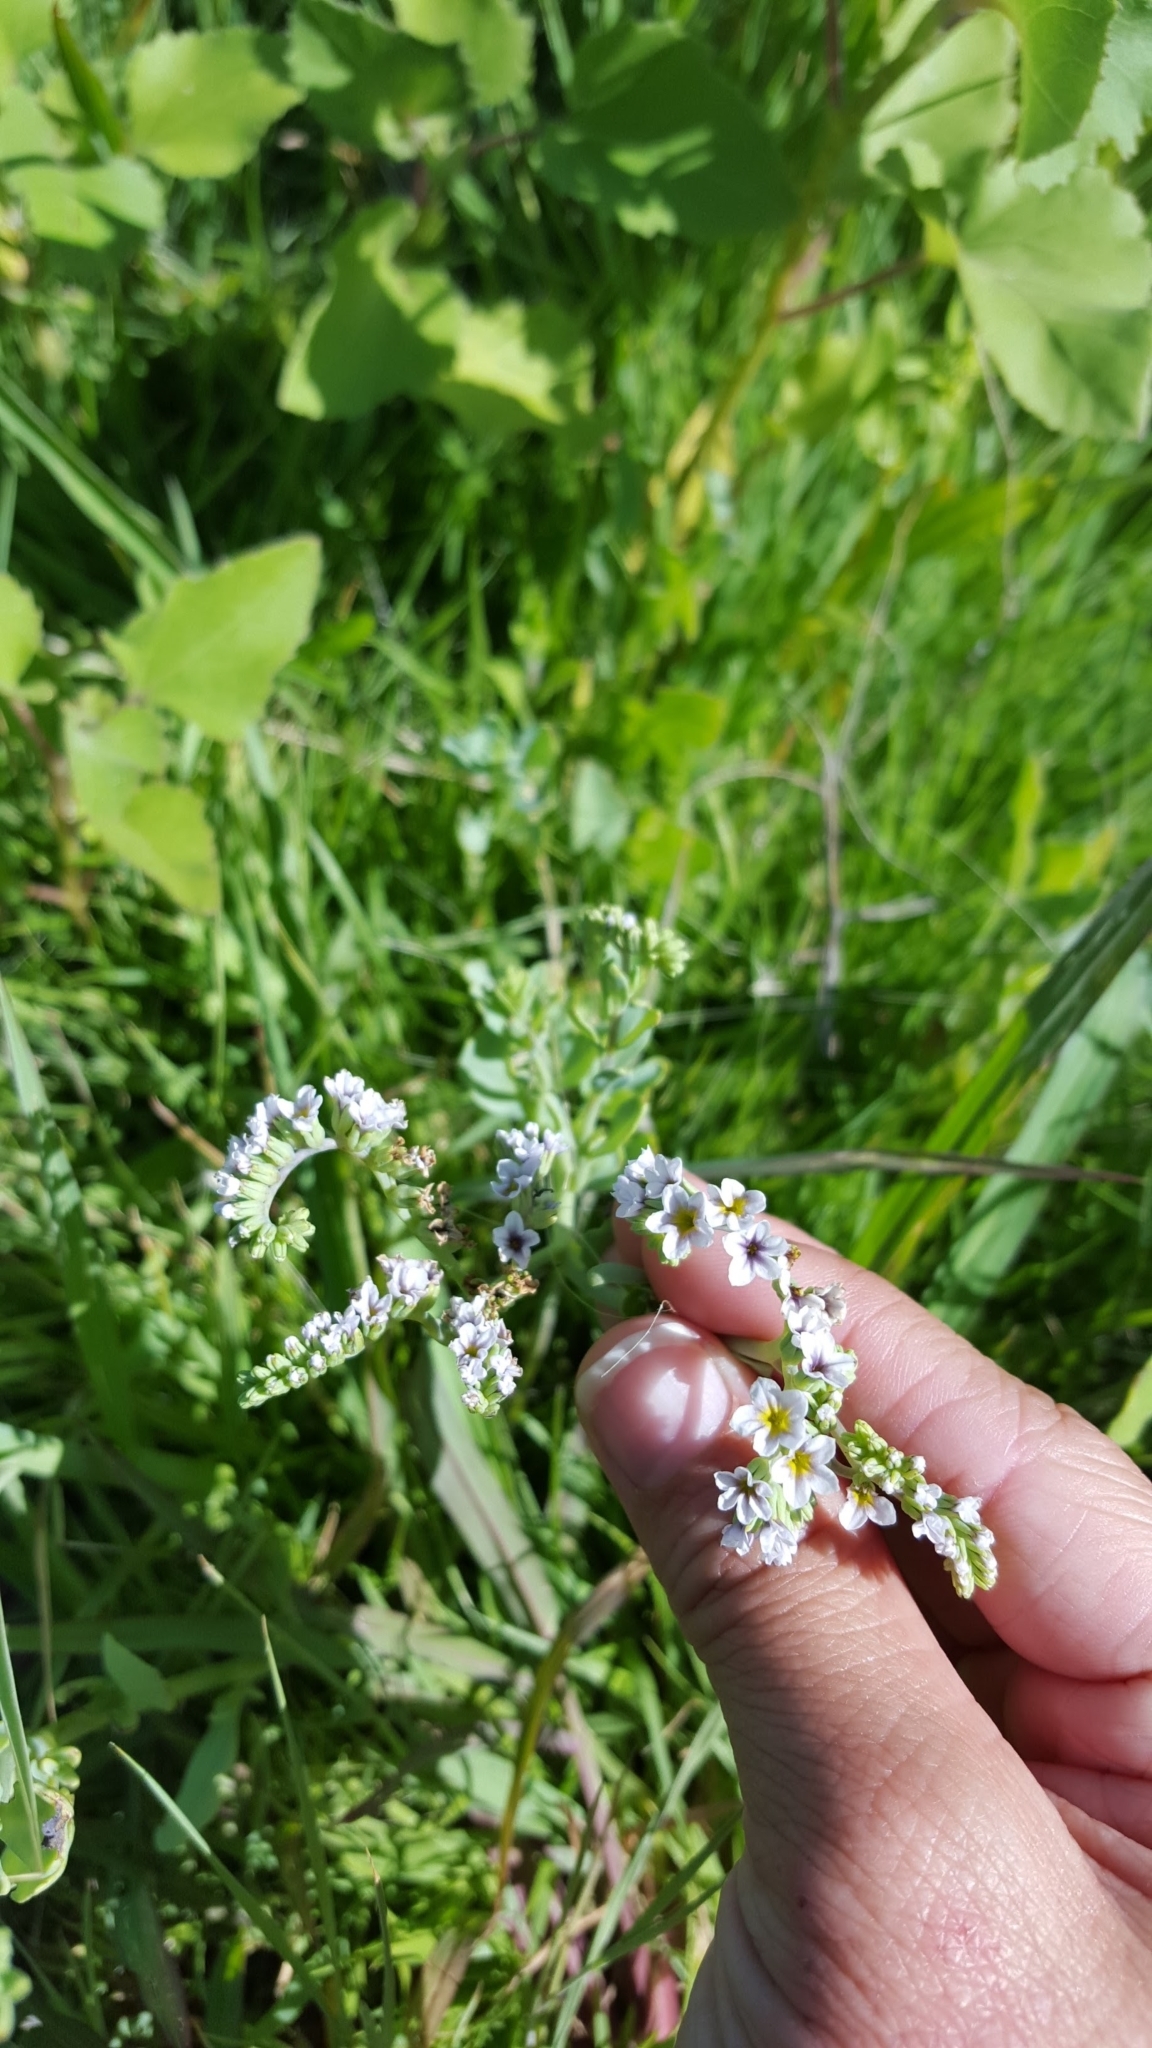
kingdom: Plantae
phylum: Tracheophyta
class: Magnoliopsida
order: Boraginales
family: Heliotropiaceae
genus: Heliotropium
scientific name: Heliotropium curassavicum
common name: Seaside heliotrope
